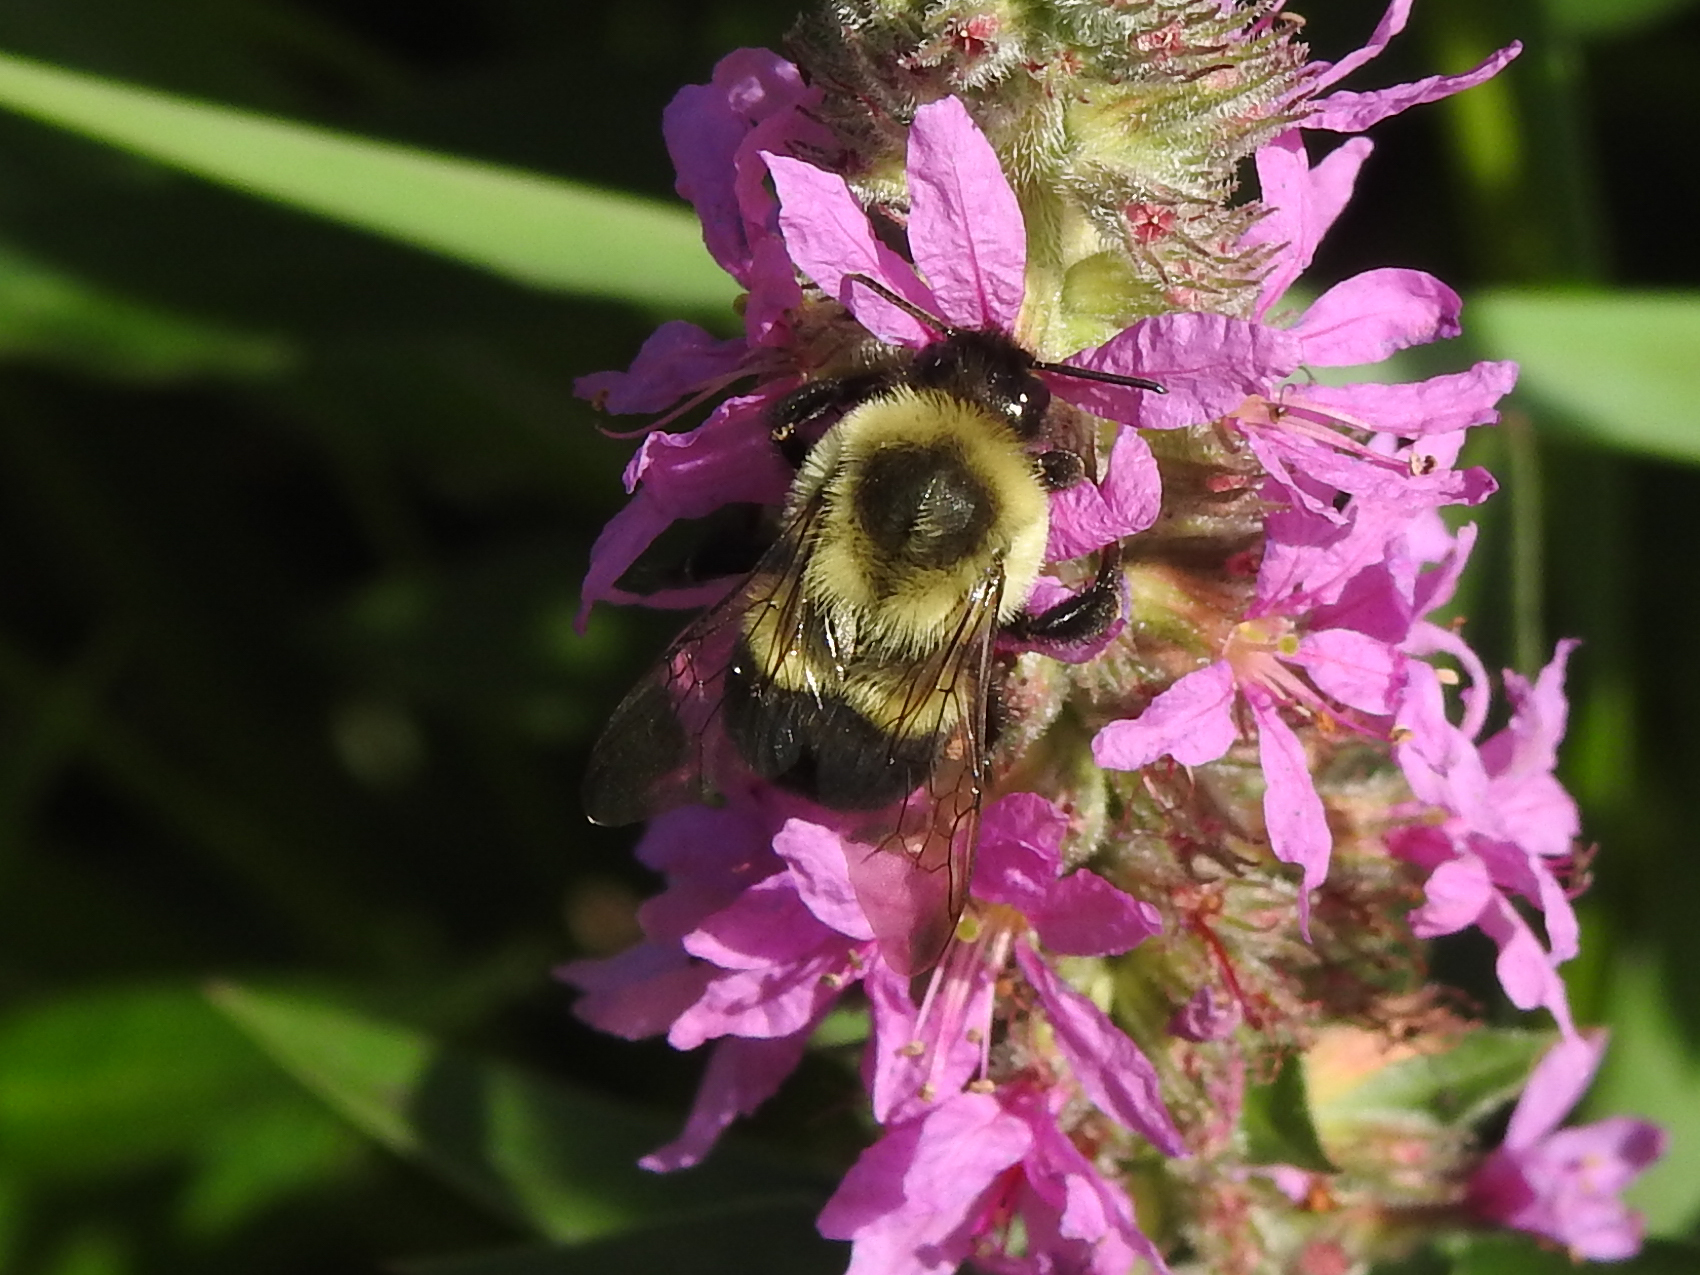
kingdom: Animalia
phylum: Arthropoda
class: Insecta
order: Hymenoptera
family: Apidae
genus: Bombus
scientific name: Bombus impatiens
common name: Common eastern bumble bee
